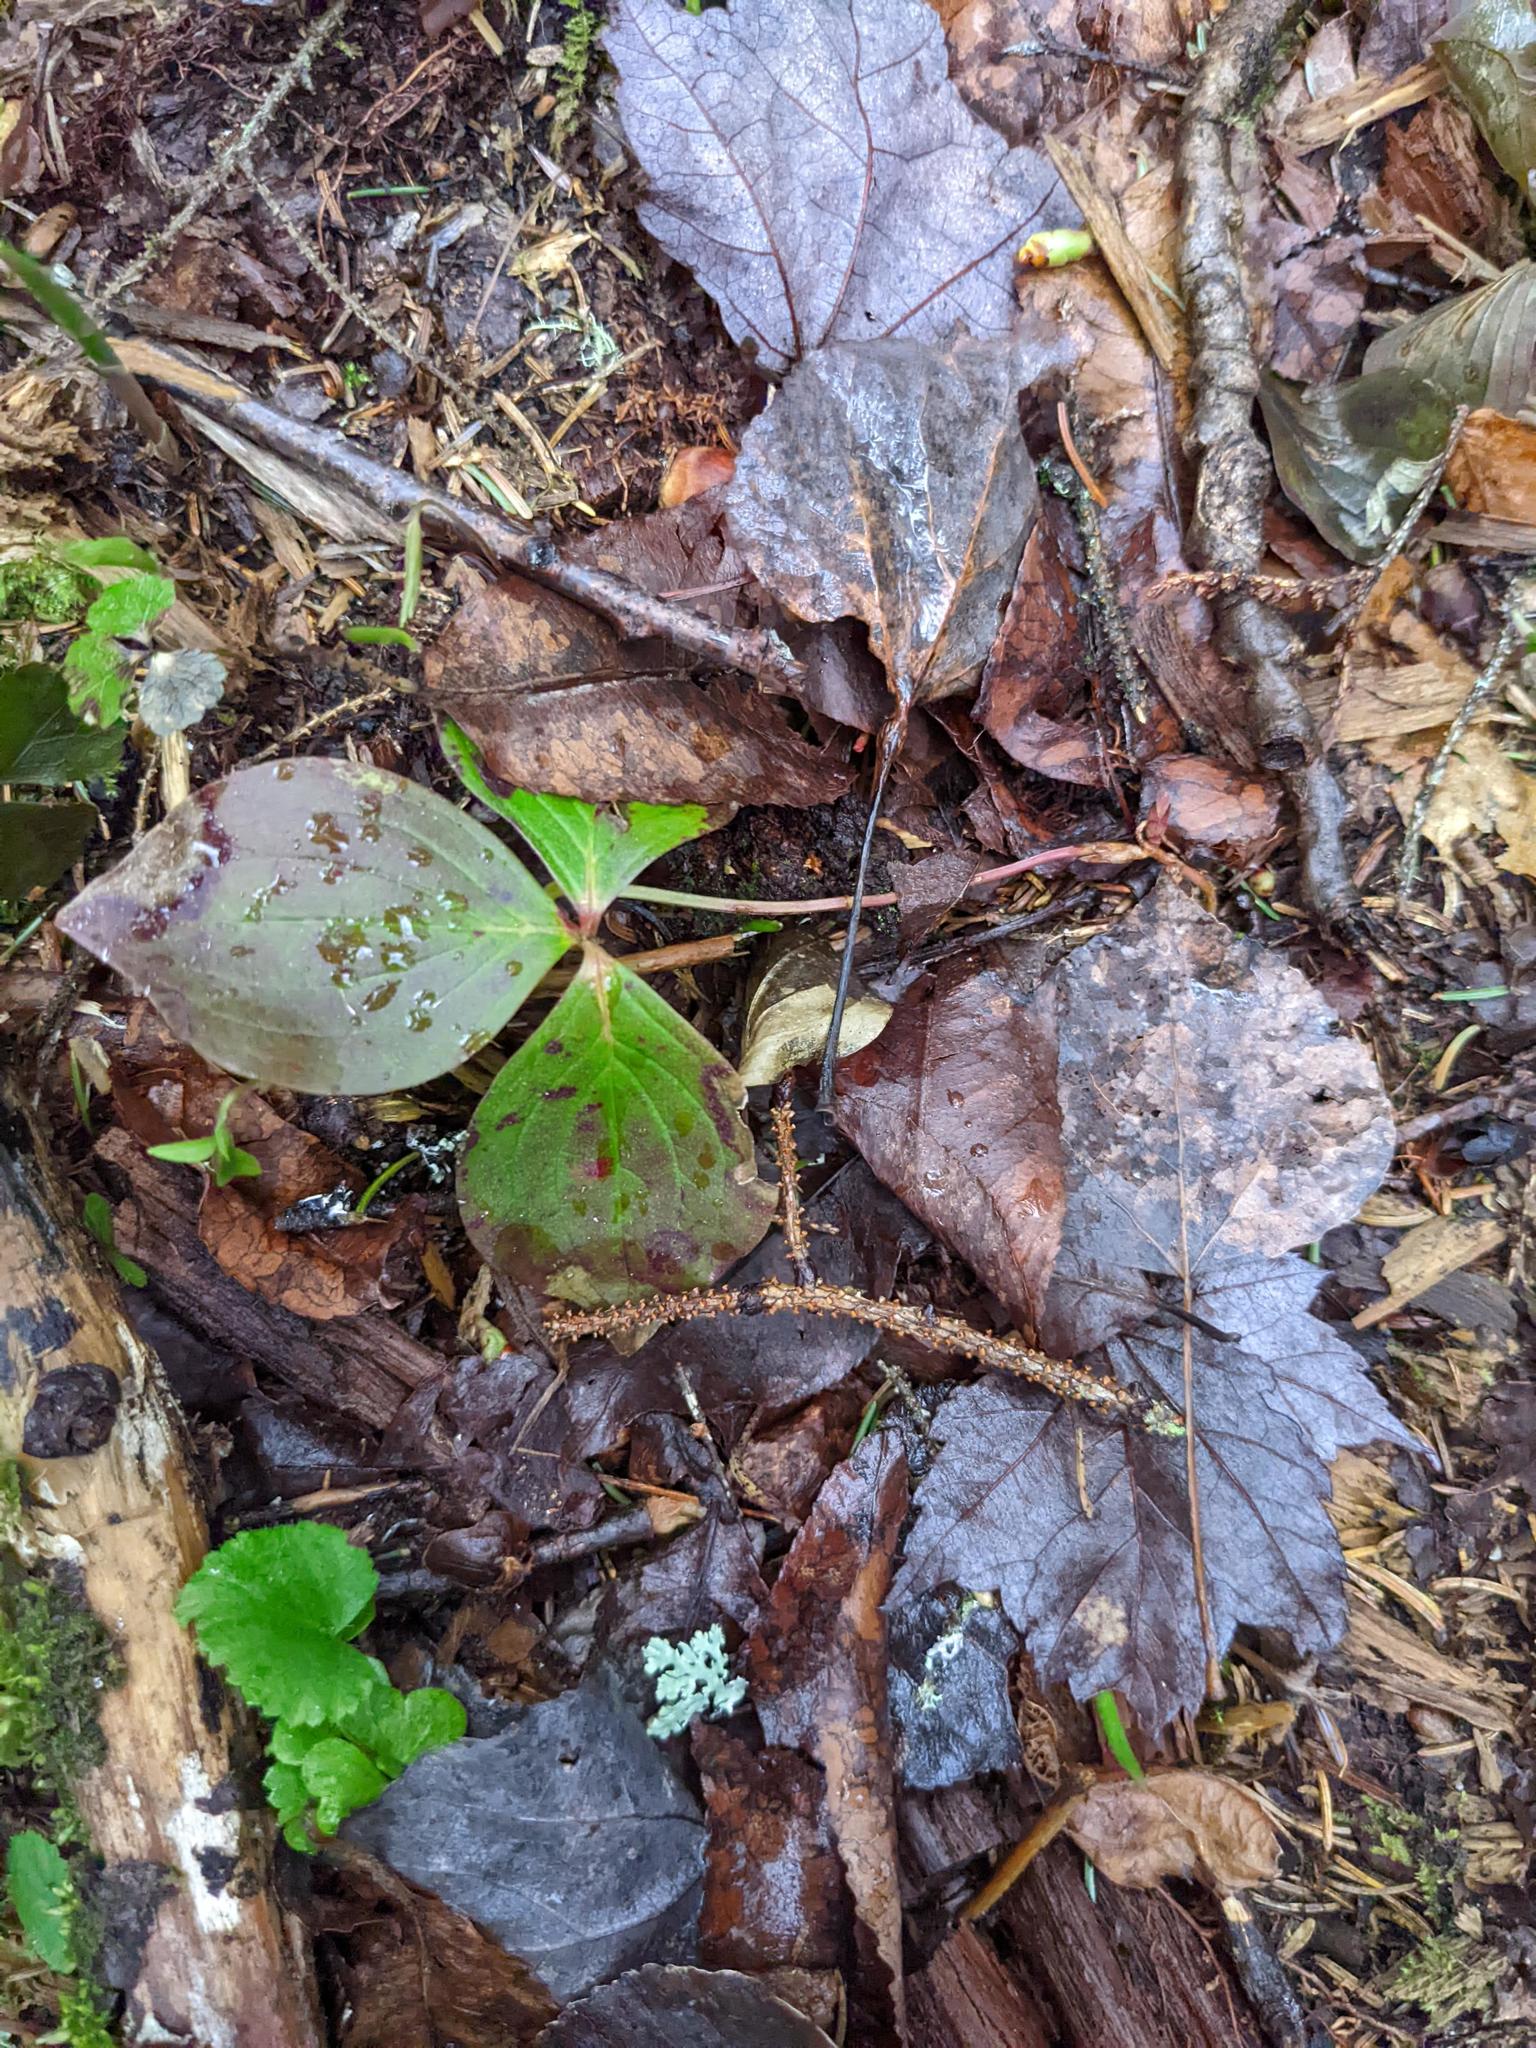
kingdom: Plantae
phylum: Tracheophyta
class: Magnoliopsida
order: Cornales
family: Cornaceae
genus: Cornus
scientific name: Cornus canadensis
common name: Creeping dogwood
